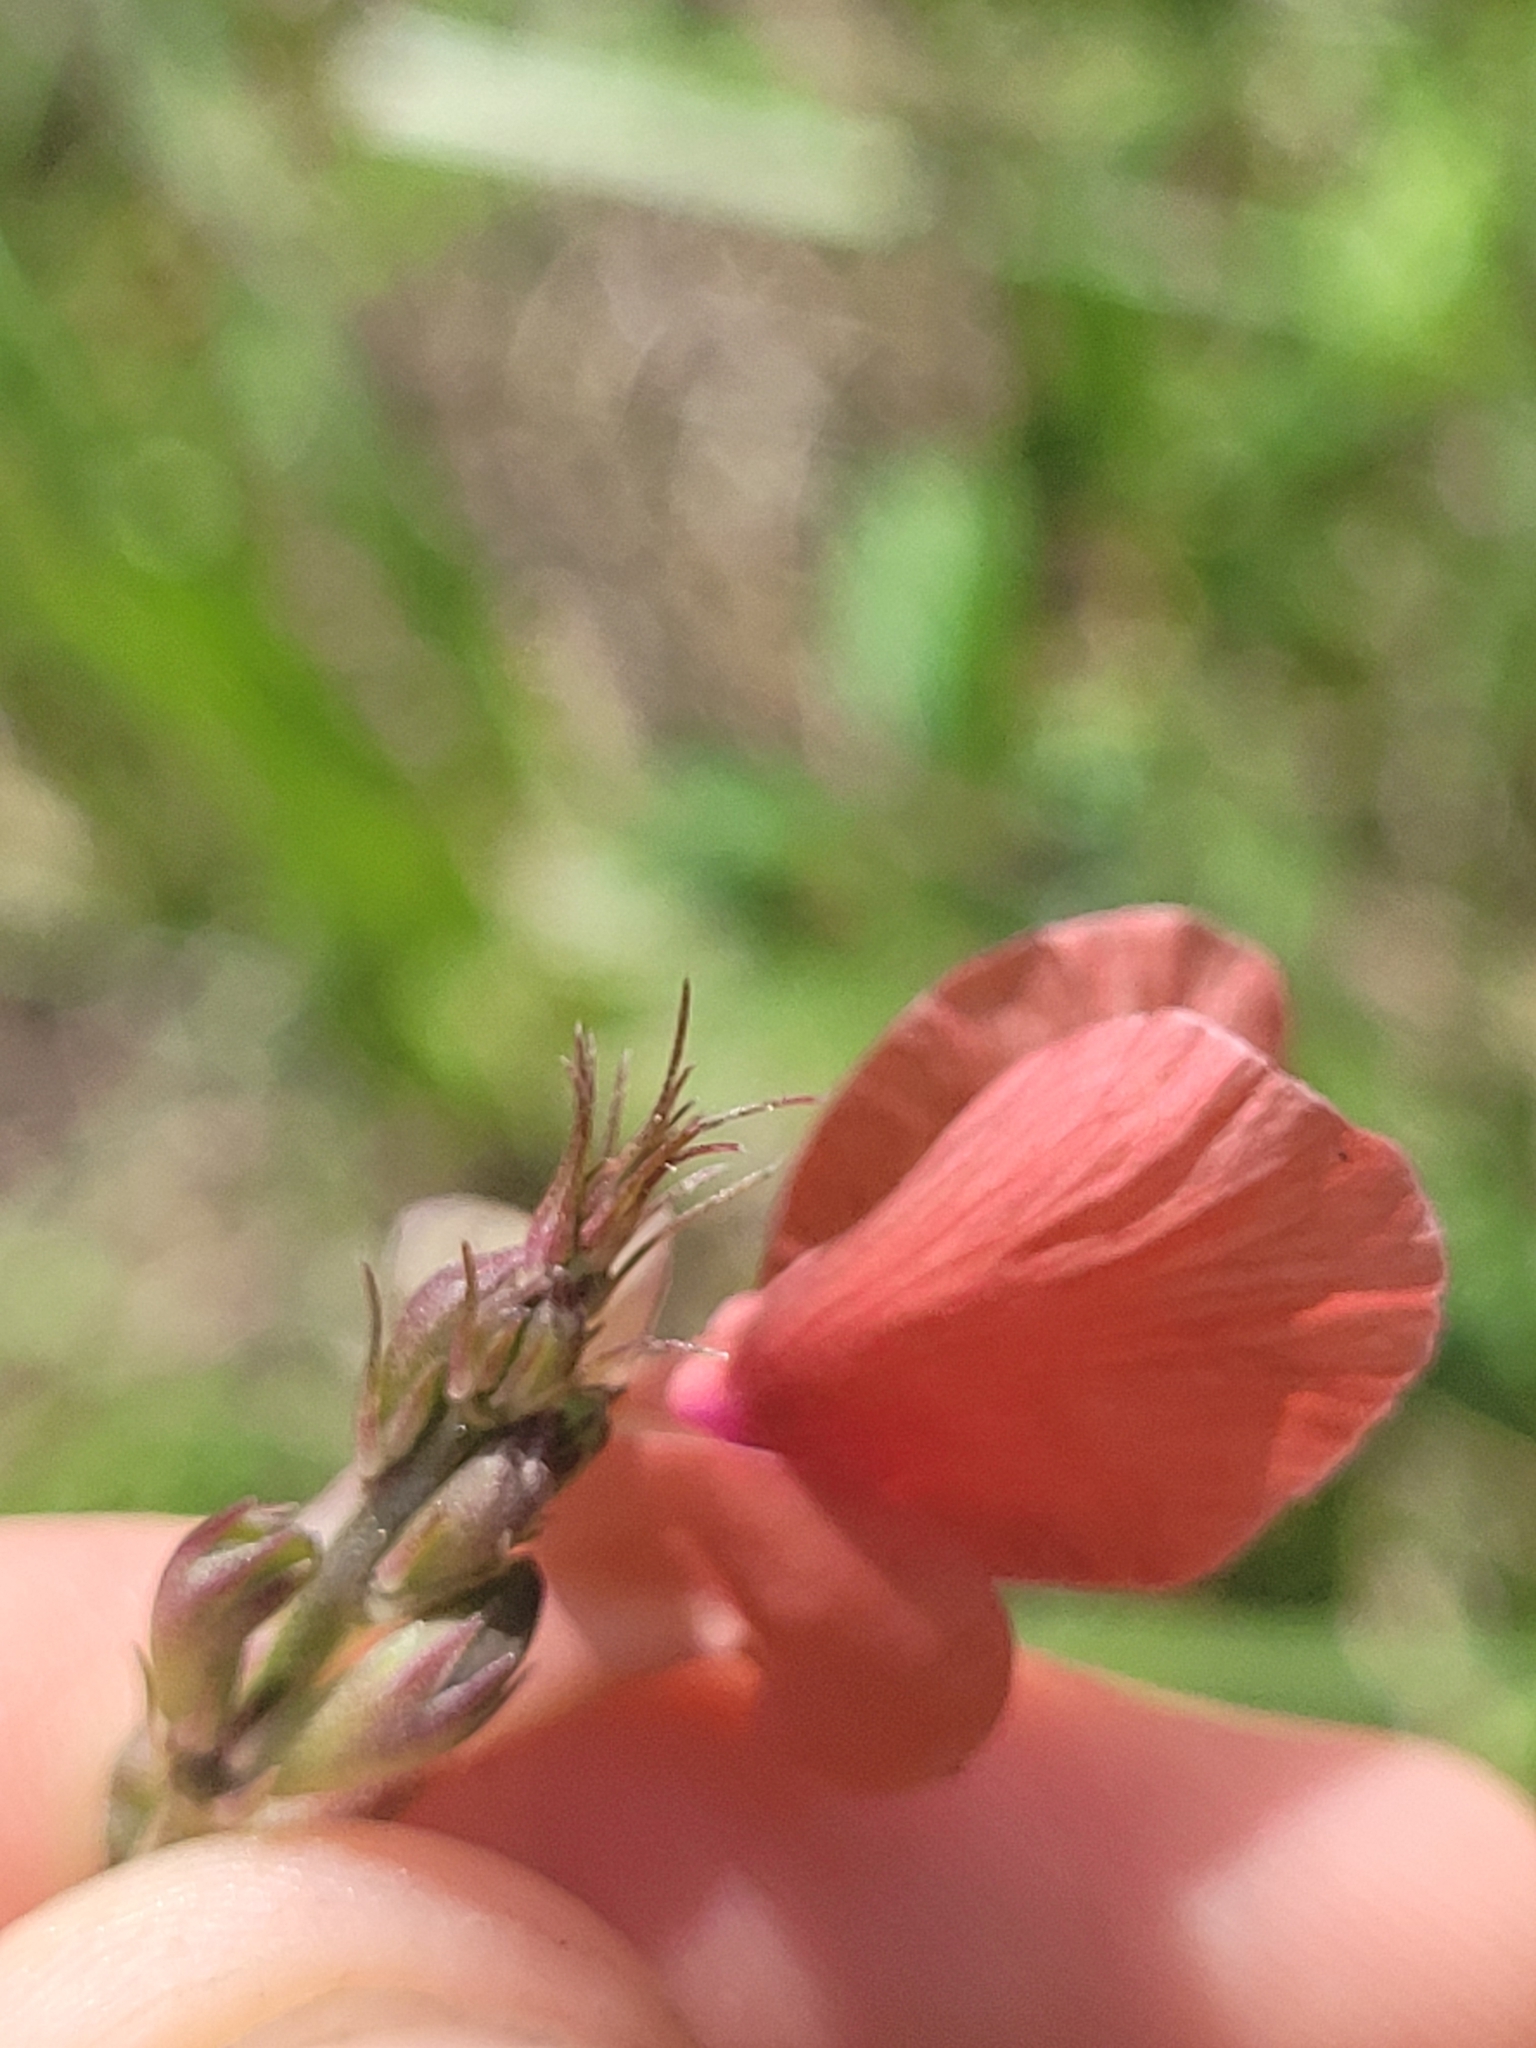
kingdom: Plantae
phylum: Tracheophyta
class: Magnoliopsida
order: Fabales
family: Fabaceae
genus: Macroptilium
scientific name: Macroptilium lathyroides
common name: Wild bushbean
